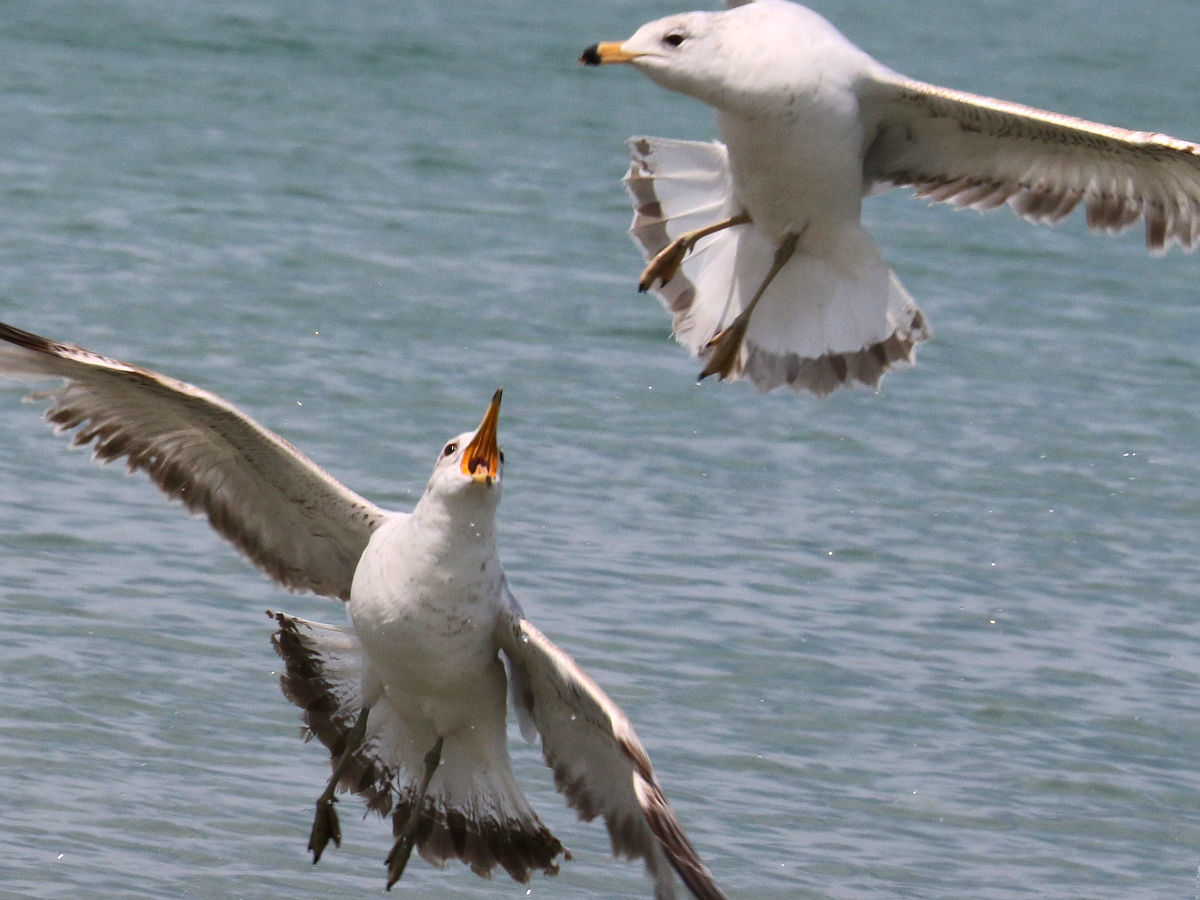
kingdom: Animalia
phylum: Chordata
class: Aves
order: Charadriiformes
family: Laridae
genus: Larus
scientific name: Larus delawarensis
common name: Ring-billed gull
